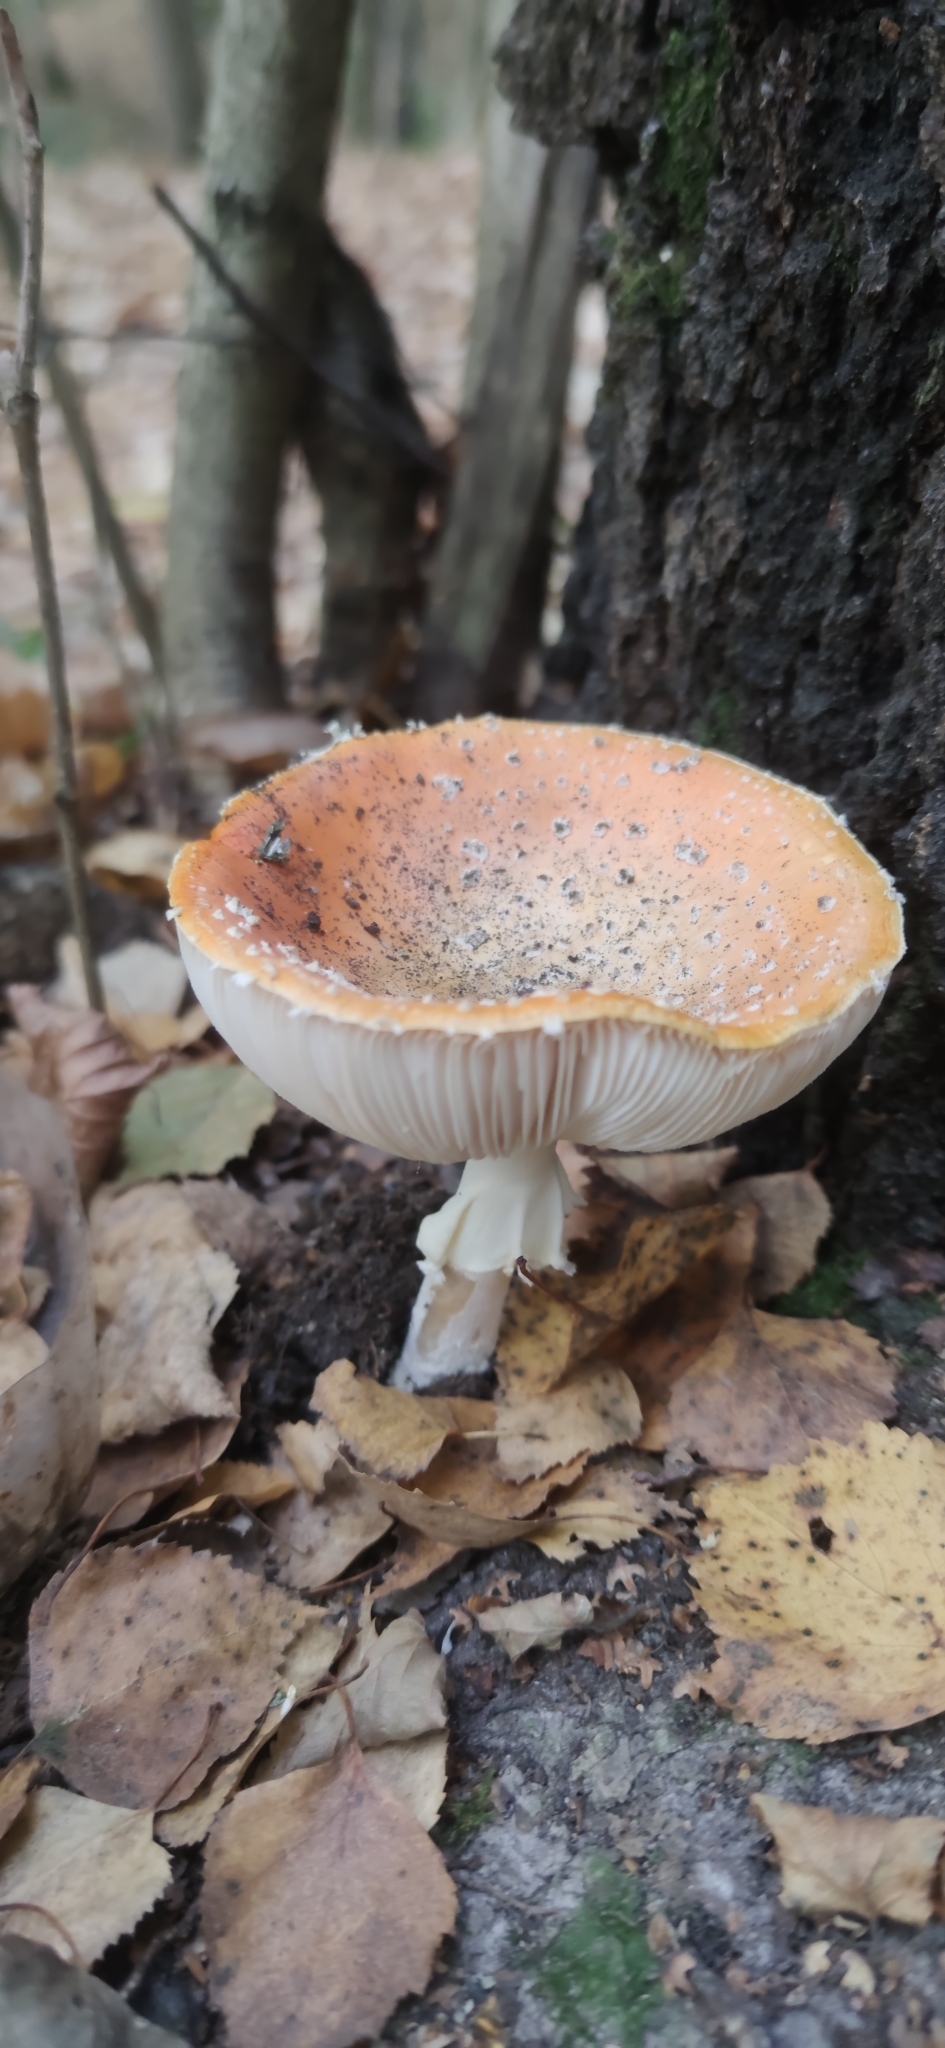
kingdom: Fungi
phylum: Basidiomycota
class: Agaricomycetes
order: Agaricales
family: Amanitaceae
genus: Amanita
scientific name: Amanita muscaria
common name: Fly agaric
